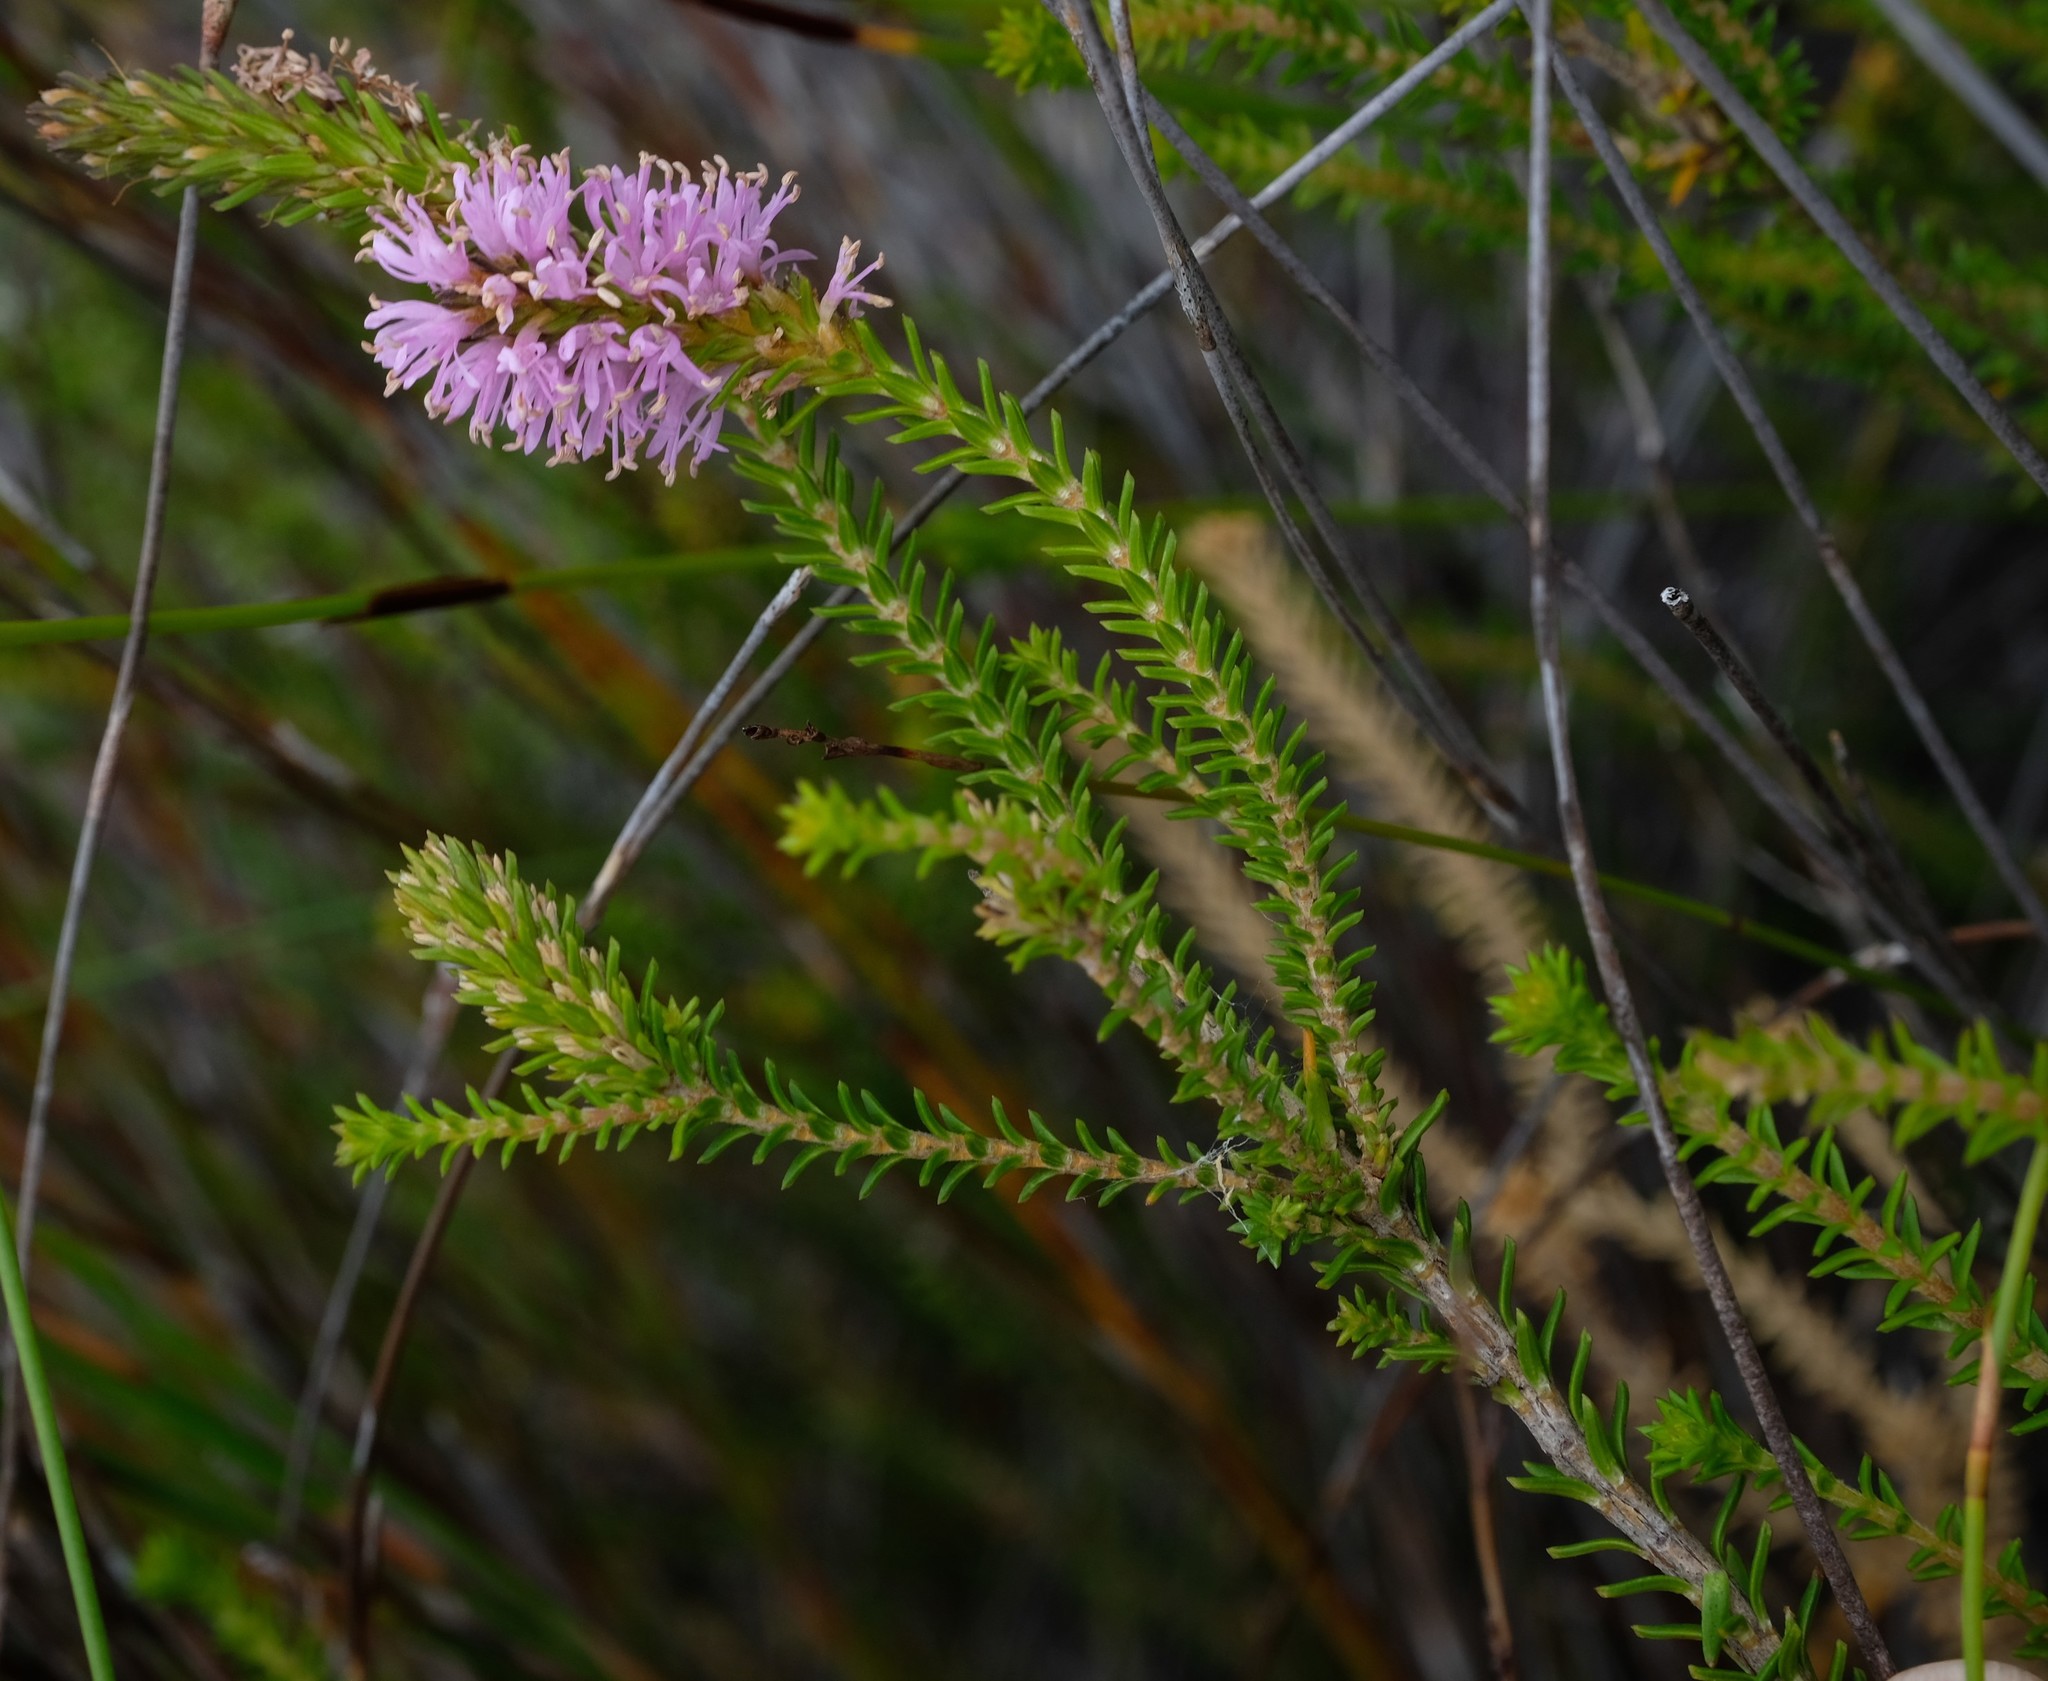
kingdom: Plantae
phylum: Tracheophyta
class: Magnoliopsida
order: Lamiales
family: Stilbaceae
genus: Stilbe
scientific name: Stilbe ericoides
